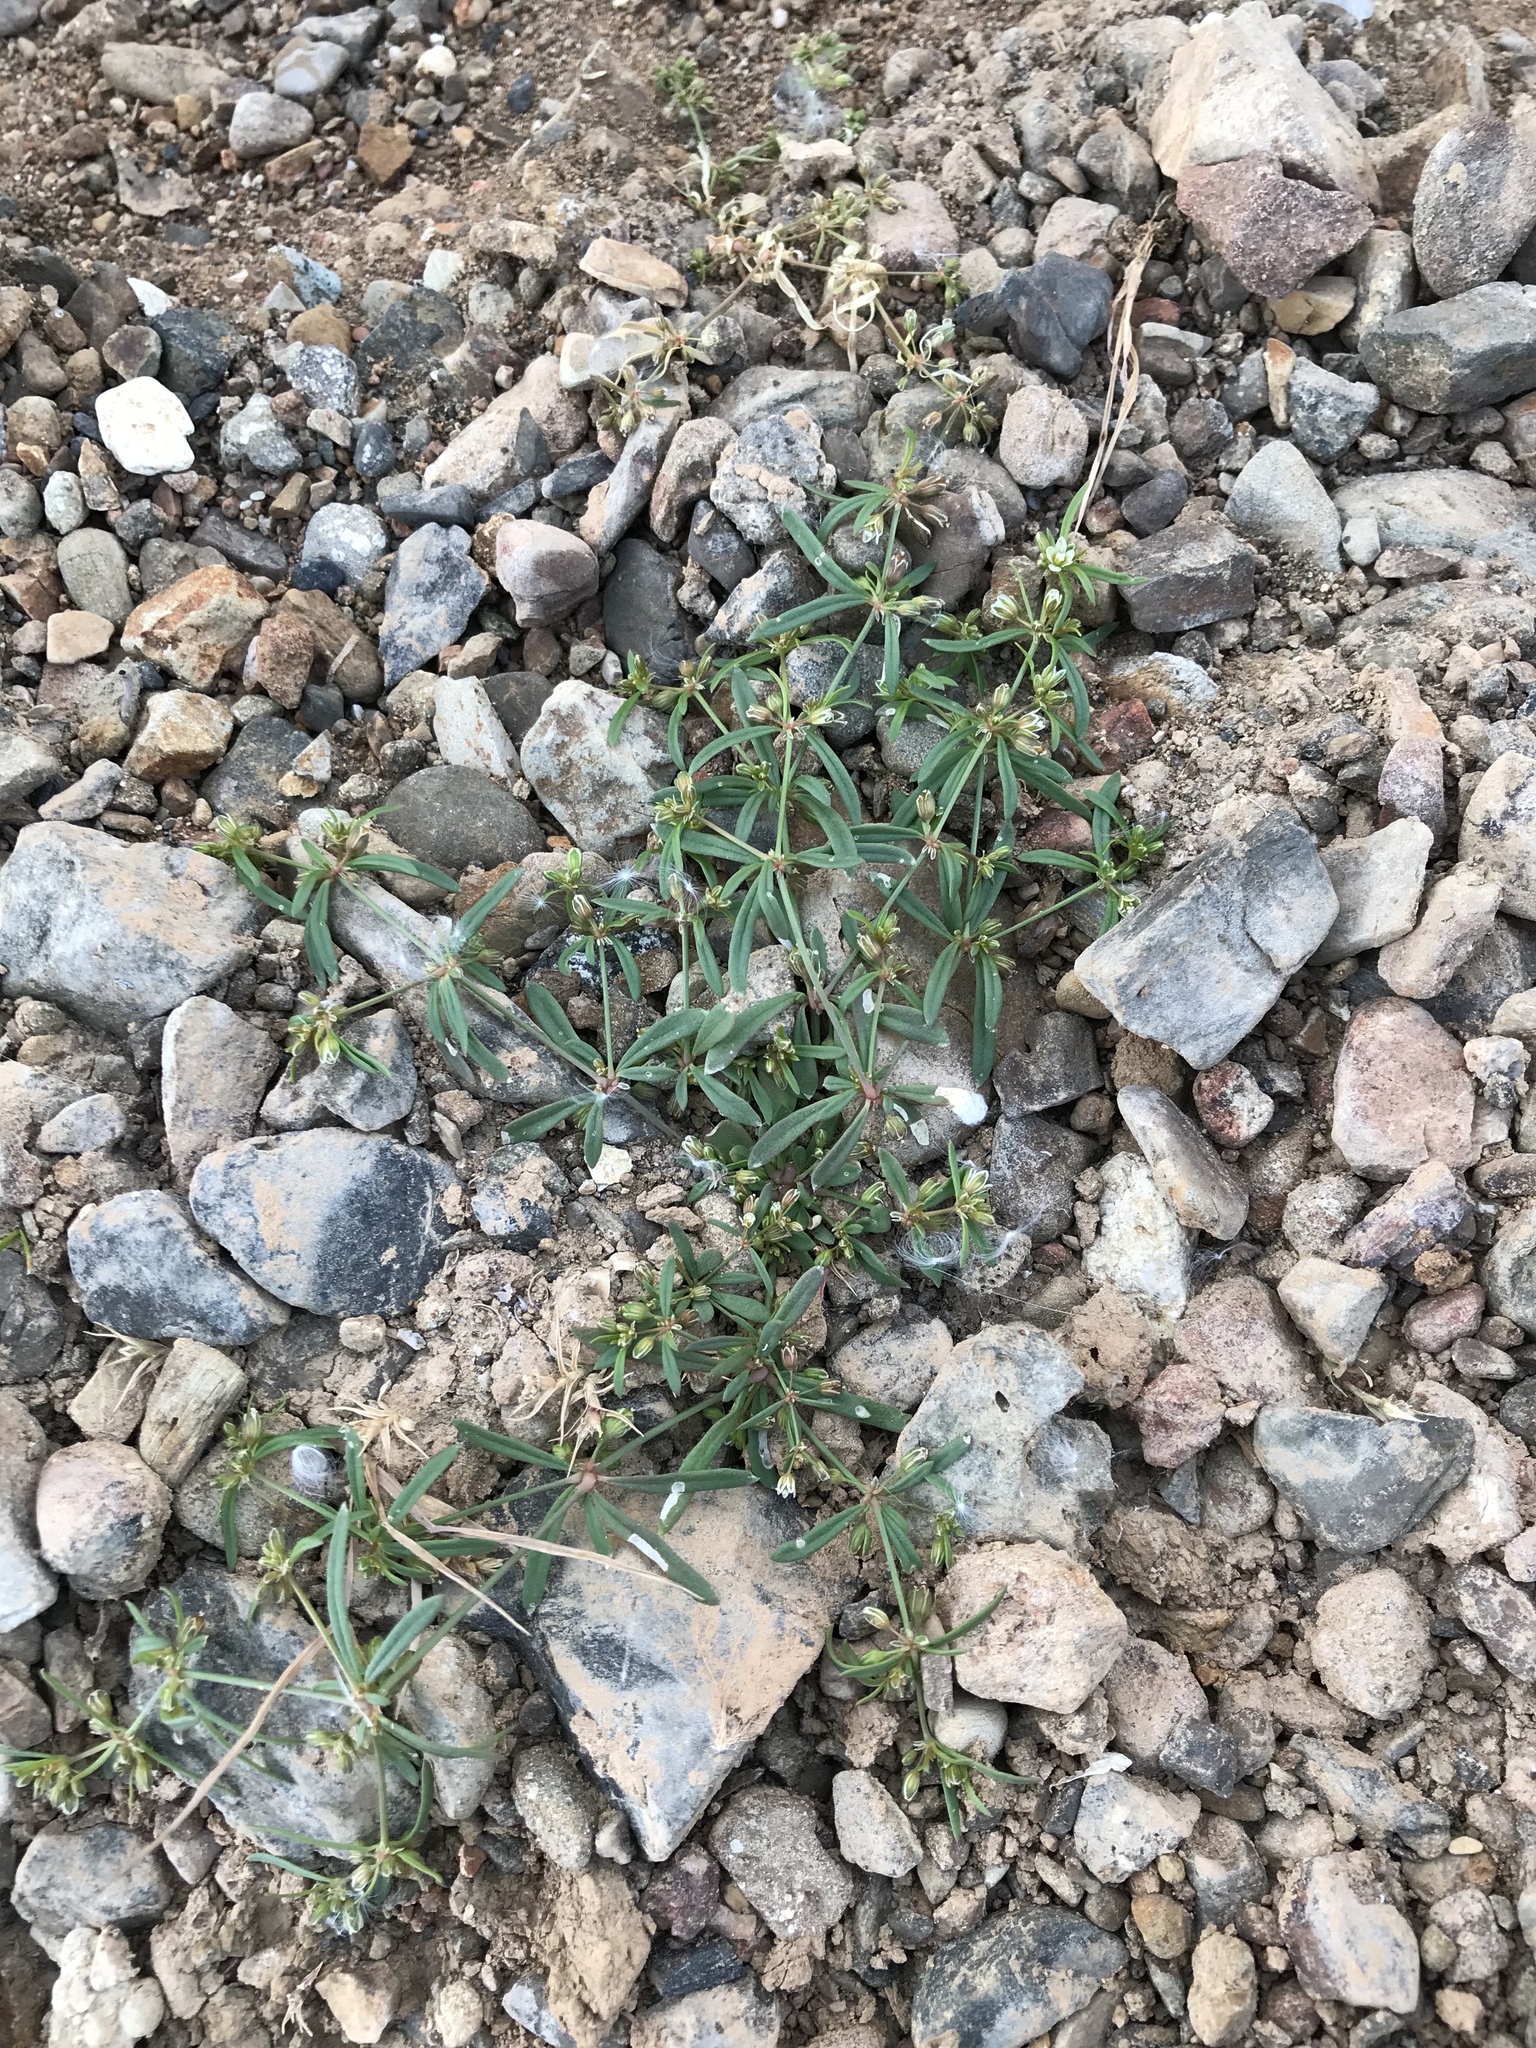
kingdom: Plantae
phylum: Tracheophyta
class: Magnoliopsida
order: Caryophyllales
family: Molluginaceae
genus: Mollugo
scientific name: Mollugo verticillata
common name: Green carpetweed
